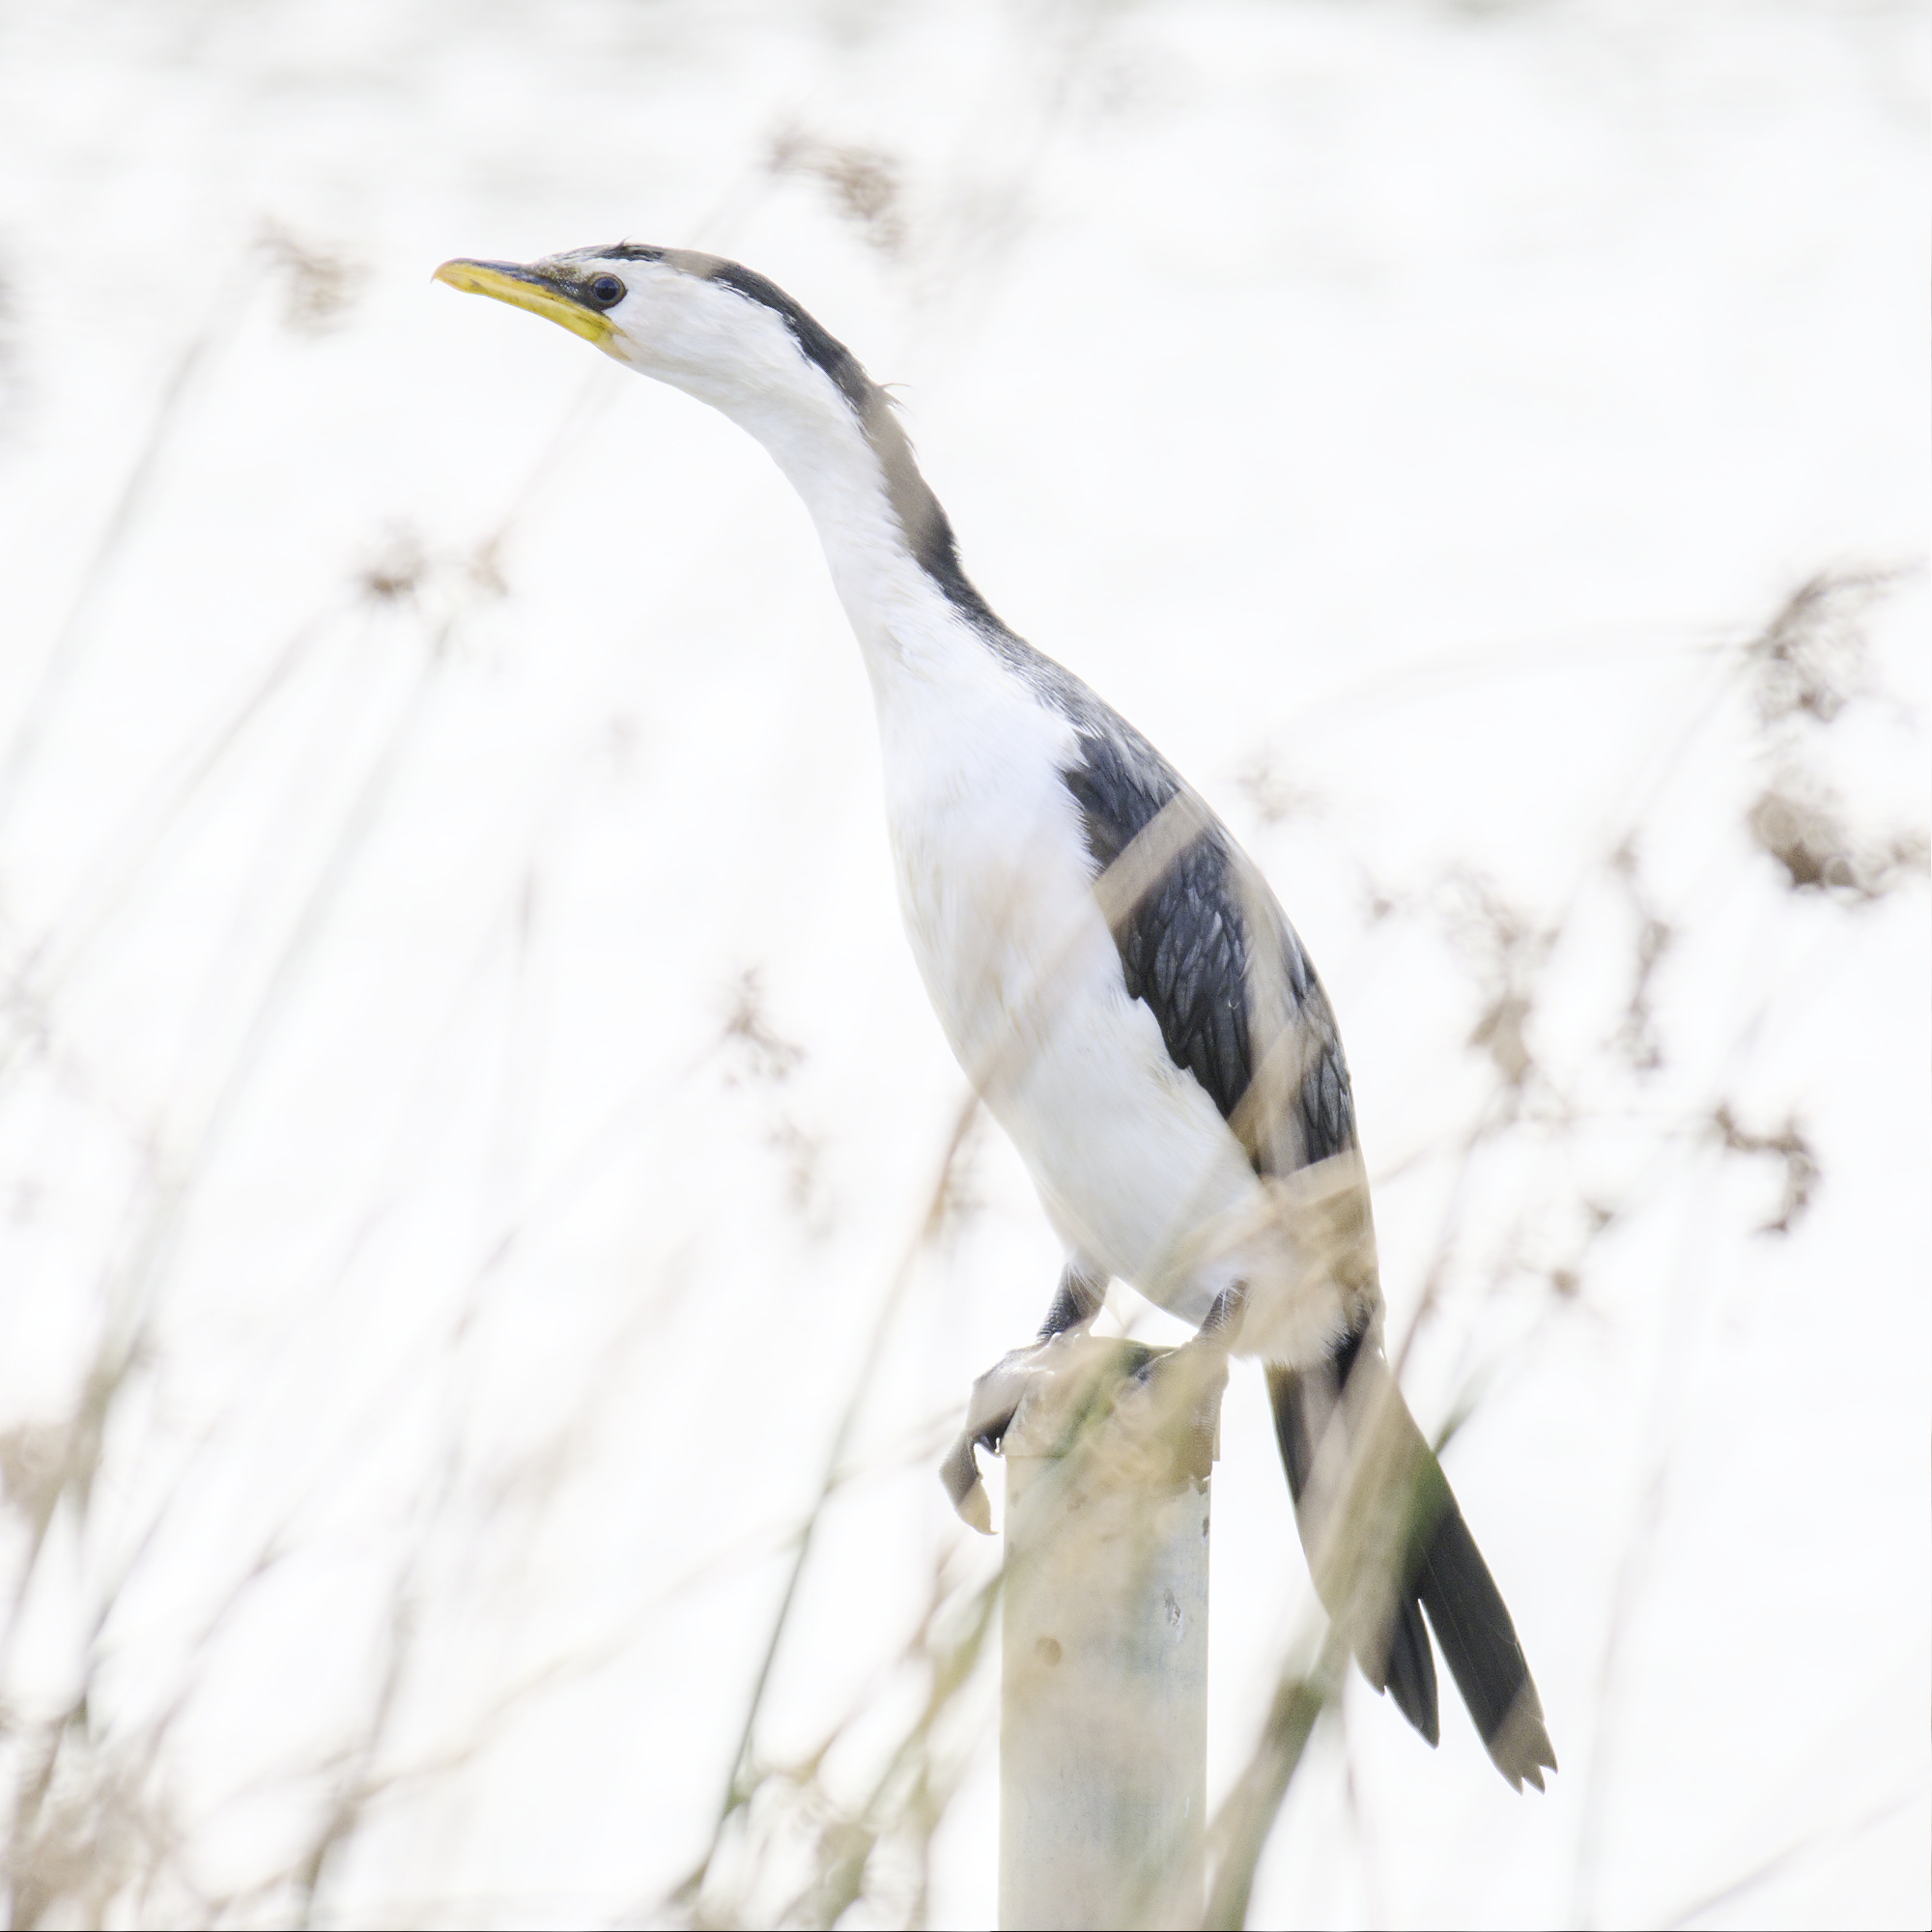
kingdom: Animalia
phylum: Chordata
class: Aves
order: Suliformes
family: Phalacrocoracidae
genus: Microcarbo
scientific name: Microcarbo melanoleucos
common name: Little pied cormorant
